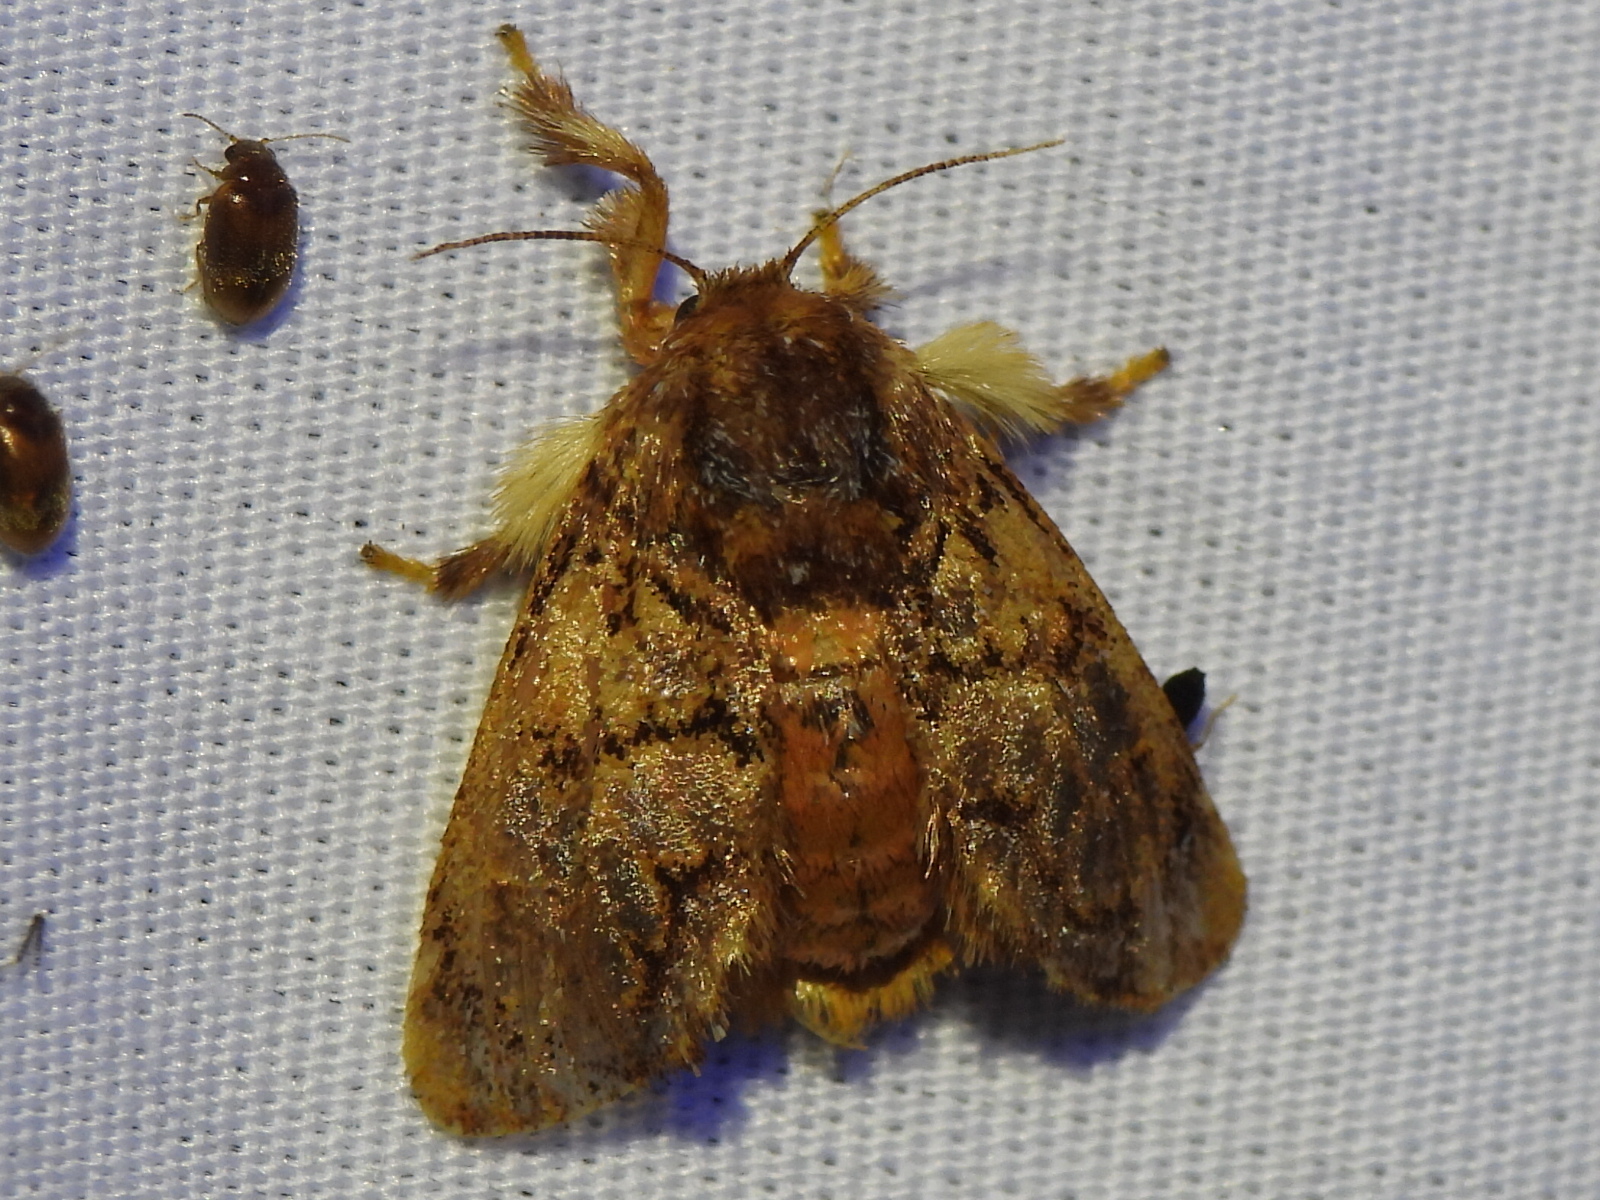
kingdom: Animalia
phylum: Arthropoda
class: Insecta
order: Lepidoptera
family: Limacodidae
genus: Phobetron
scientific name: Phobetron pithecium
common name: Hag moth
